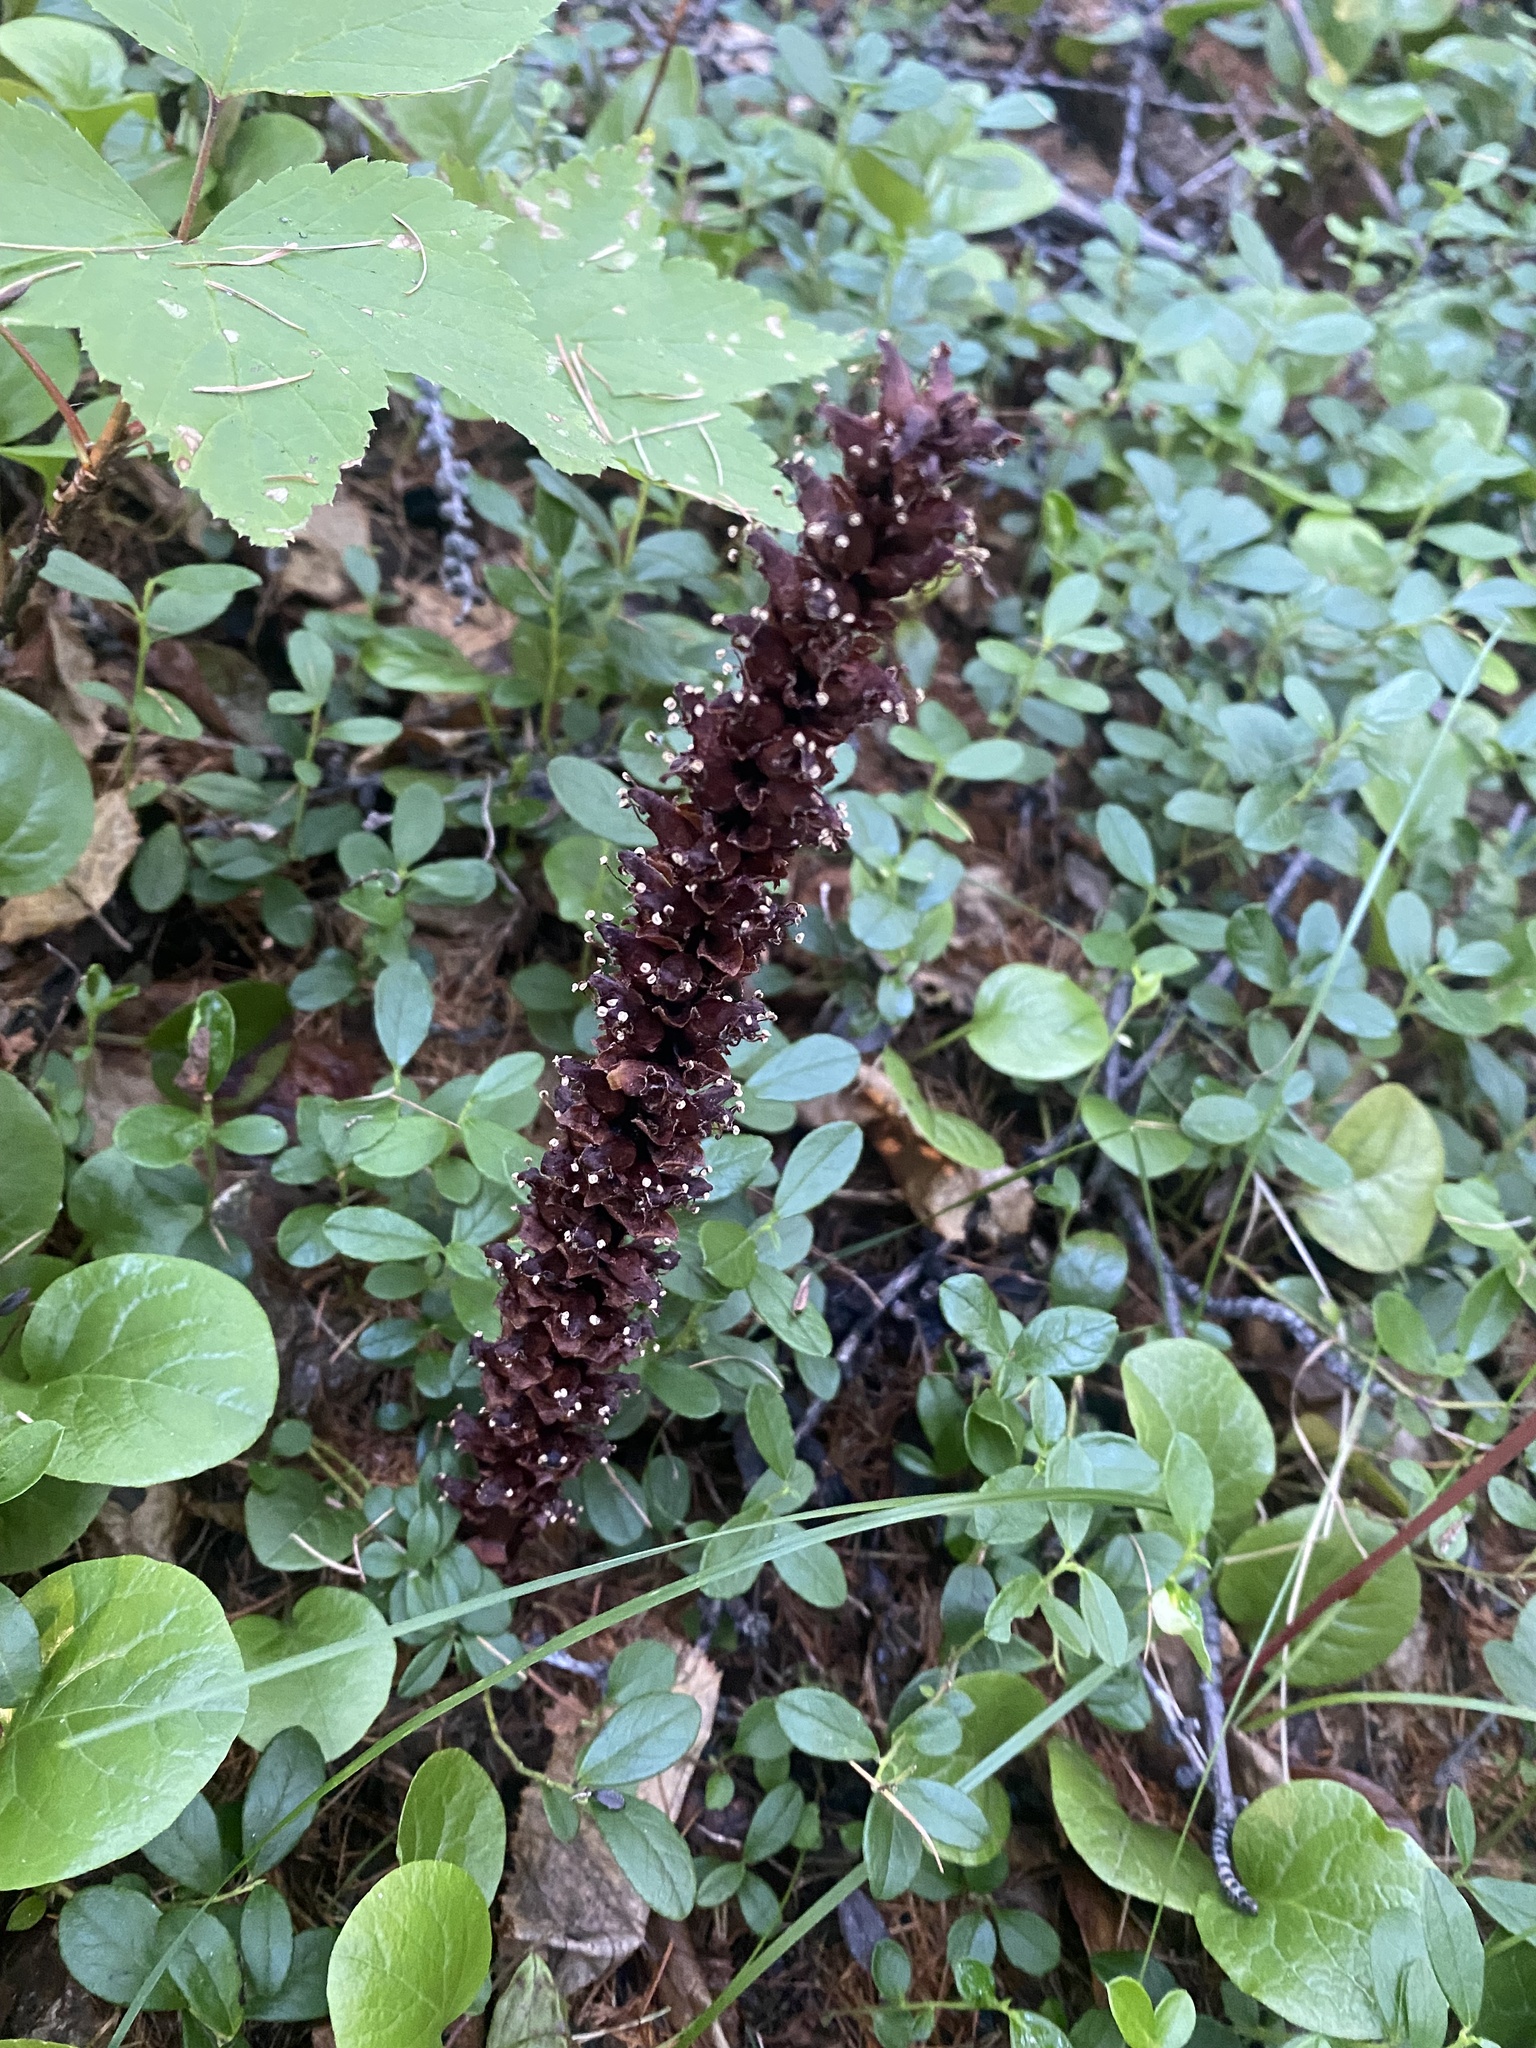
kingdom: Plantae
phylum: Tracheophyta
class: Magnoliopsida
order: Lamiales
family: Orobanchaceae
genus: Boschniakia
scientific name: Boschniakia rossica
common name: Poque
